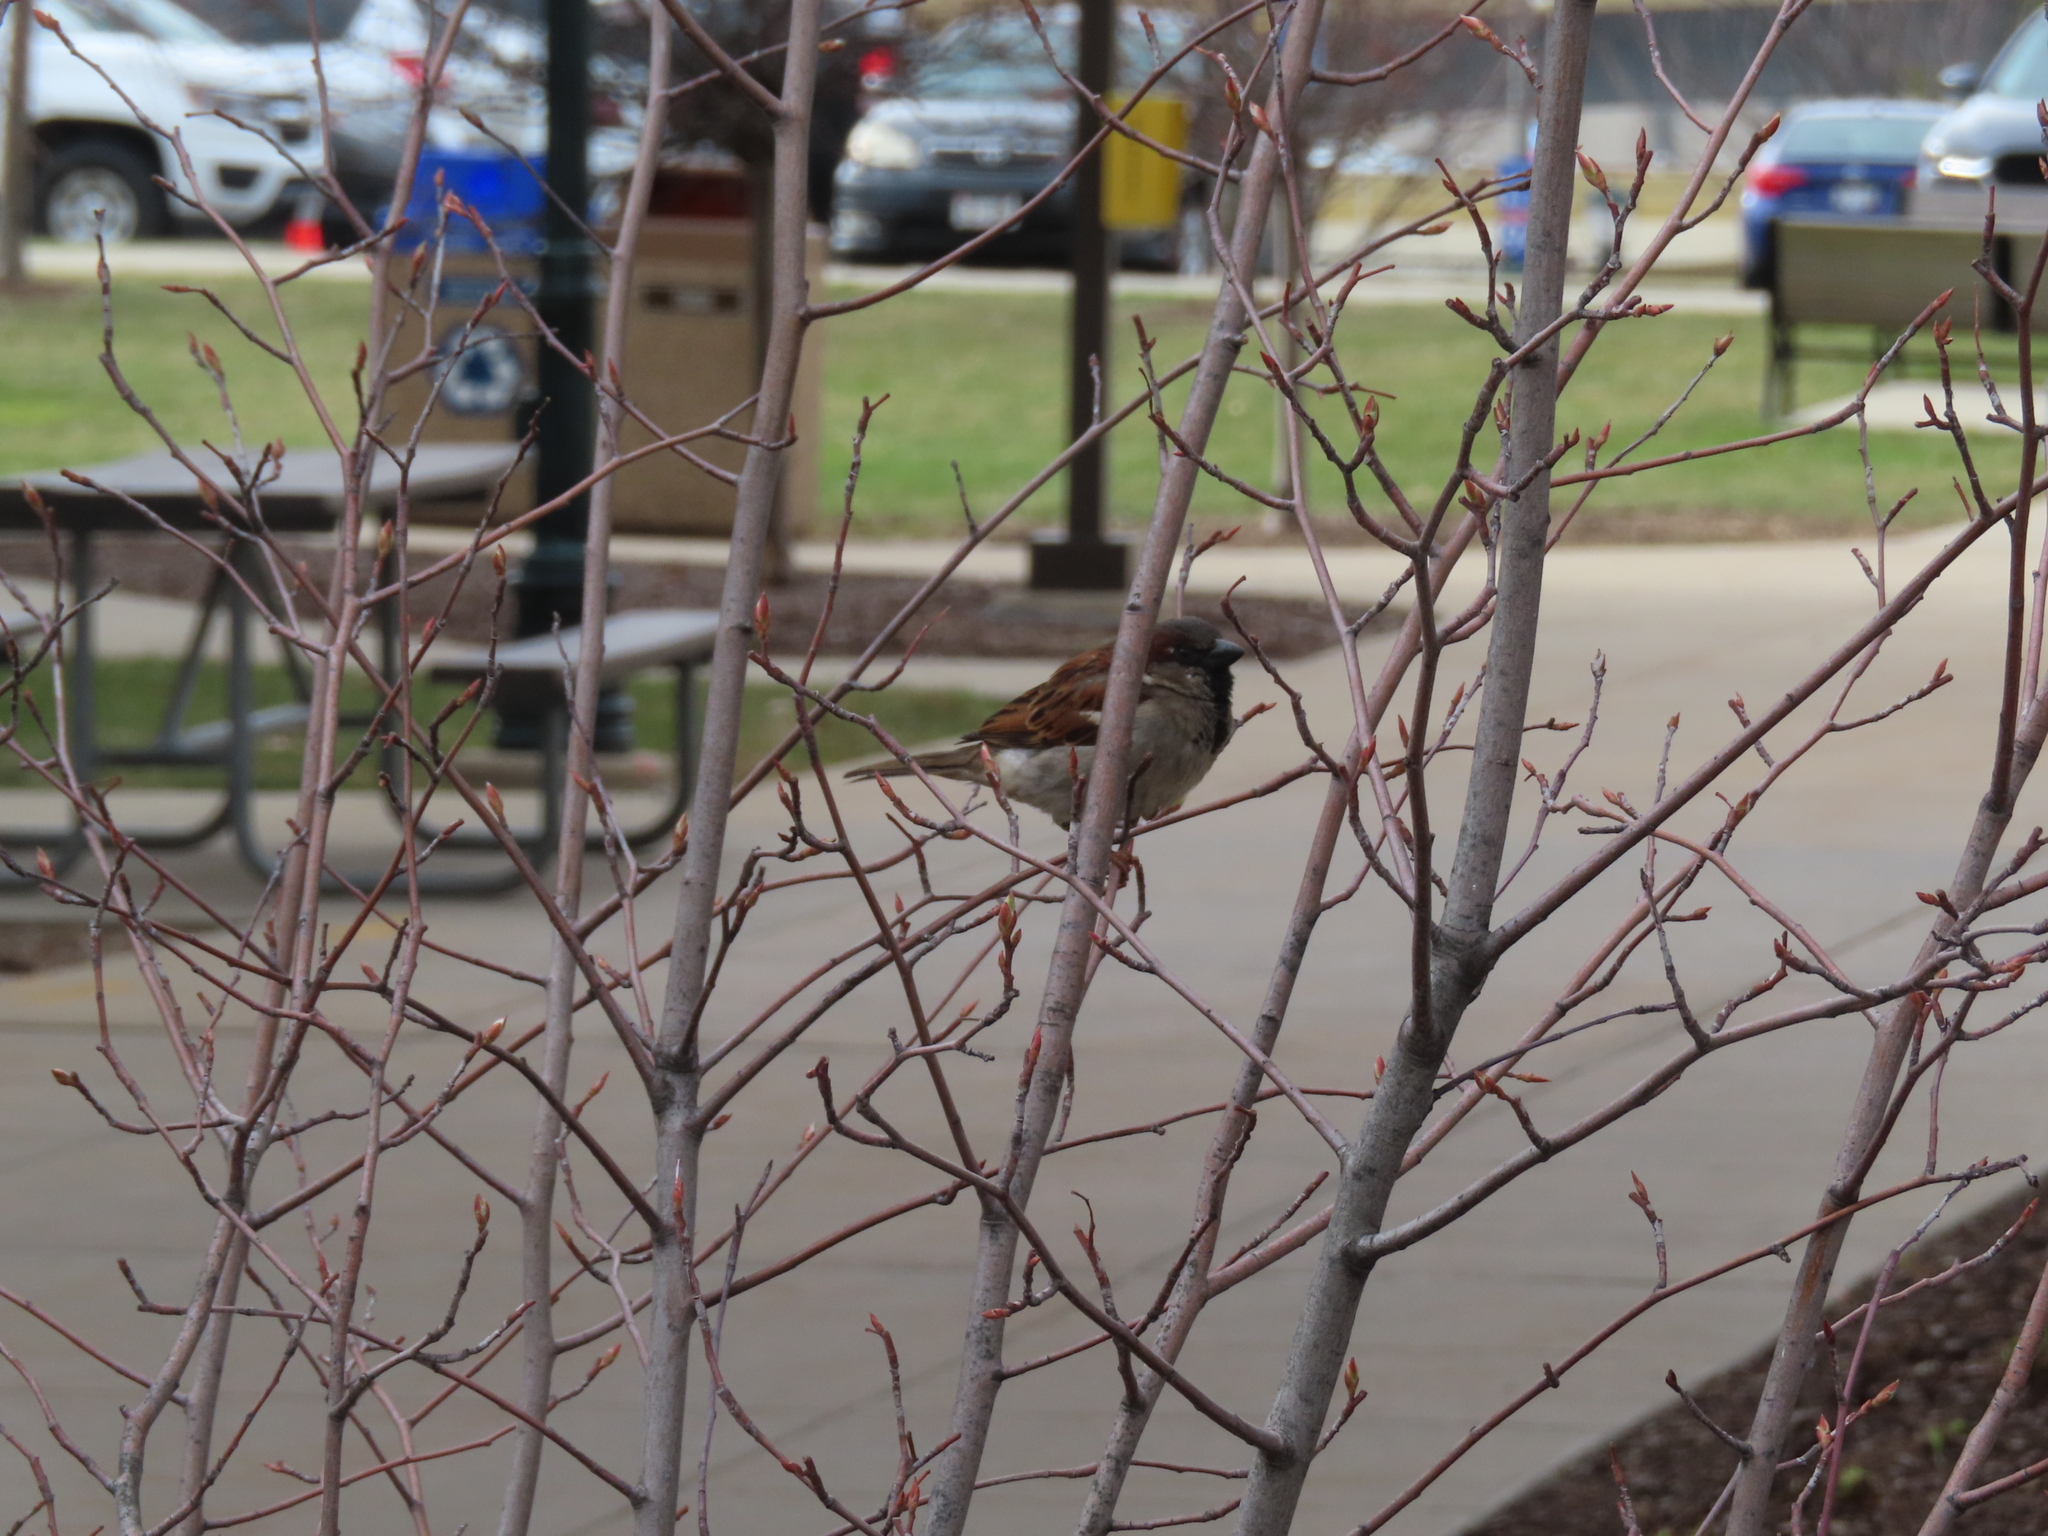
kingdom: Animalia
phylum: Chordata
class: Aves
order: Passeriformes
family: Passeridae
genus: Passer
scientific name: Passer domesticus
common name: House sparrow
